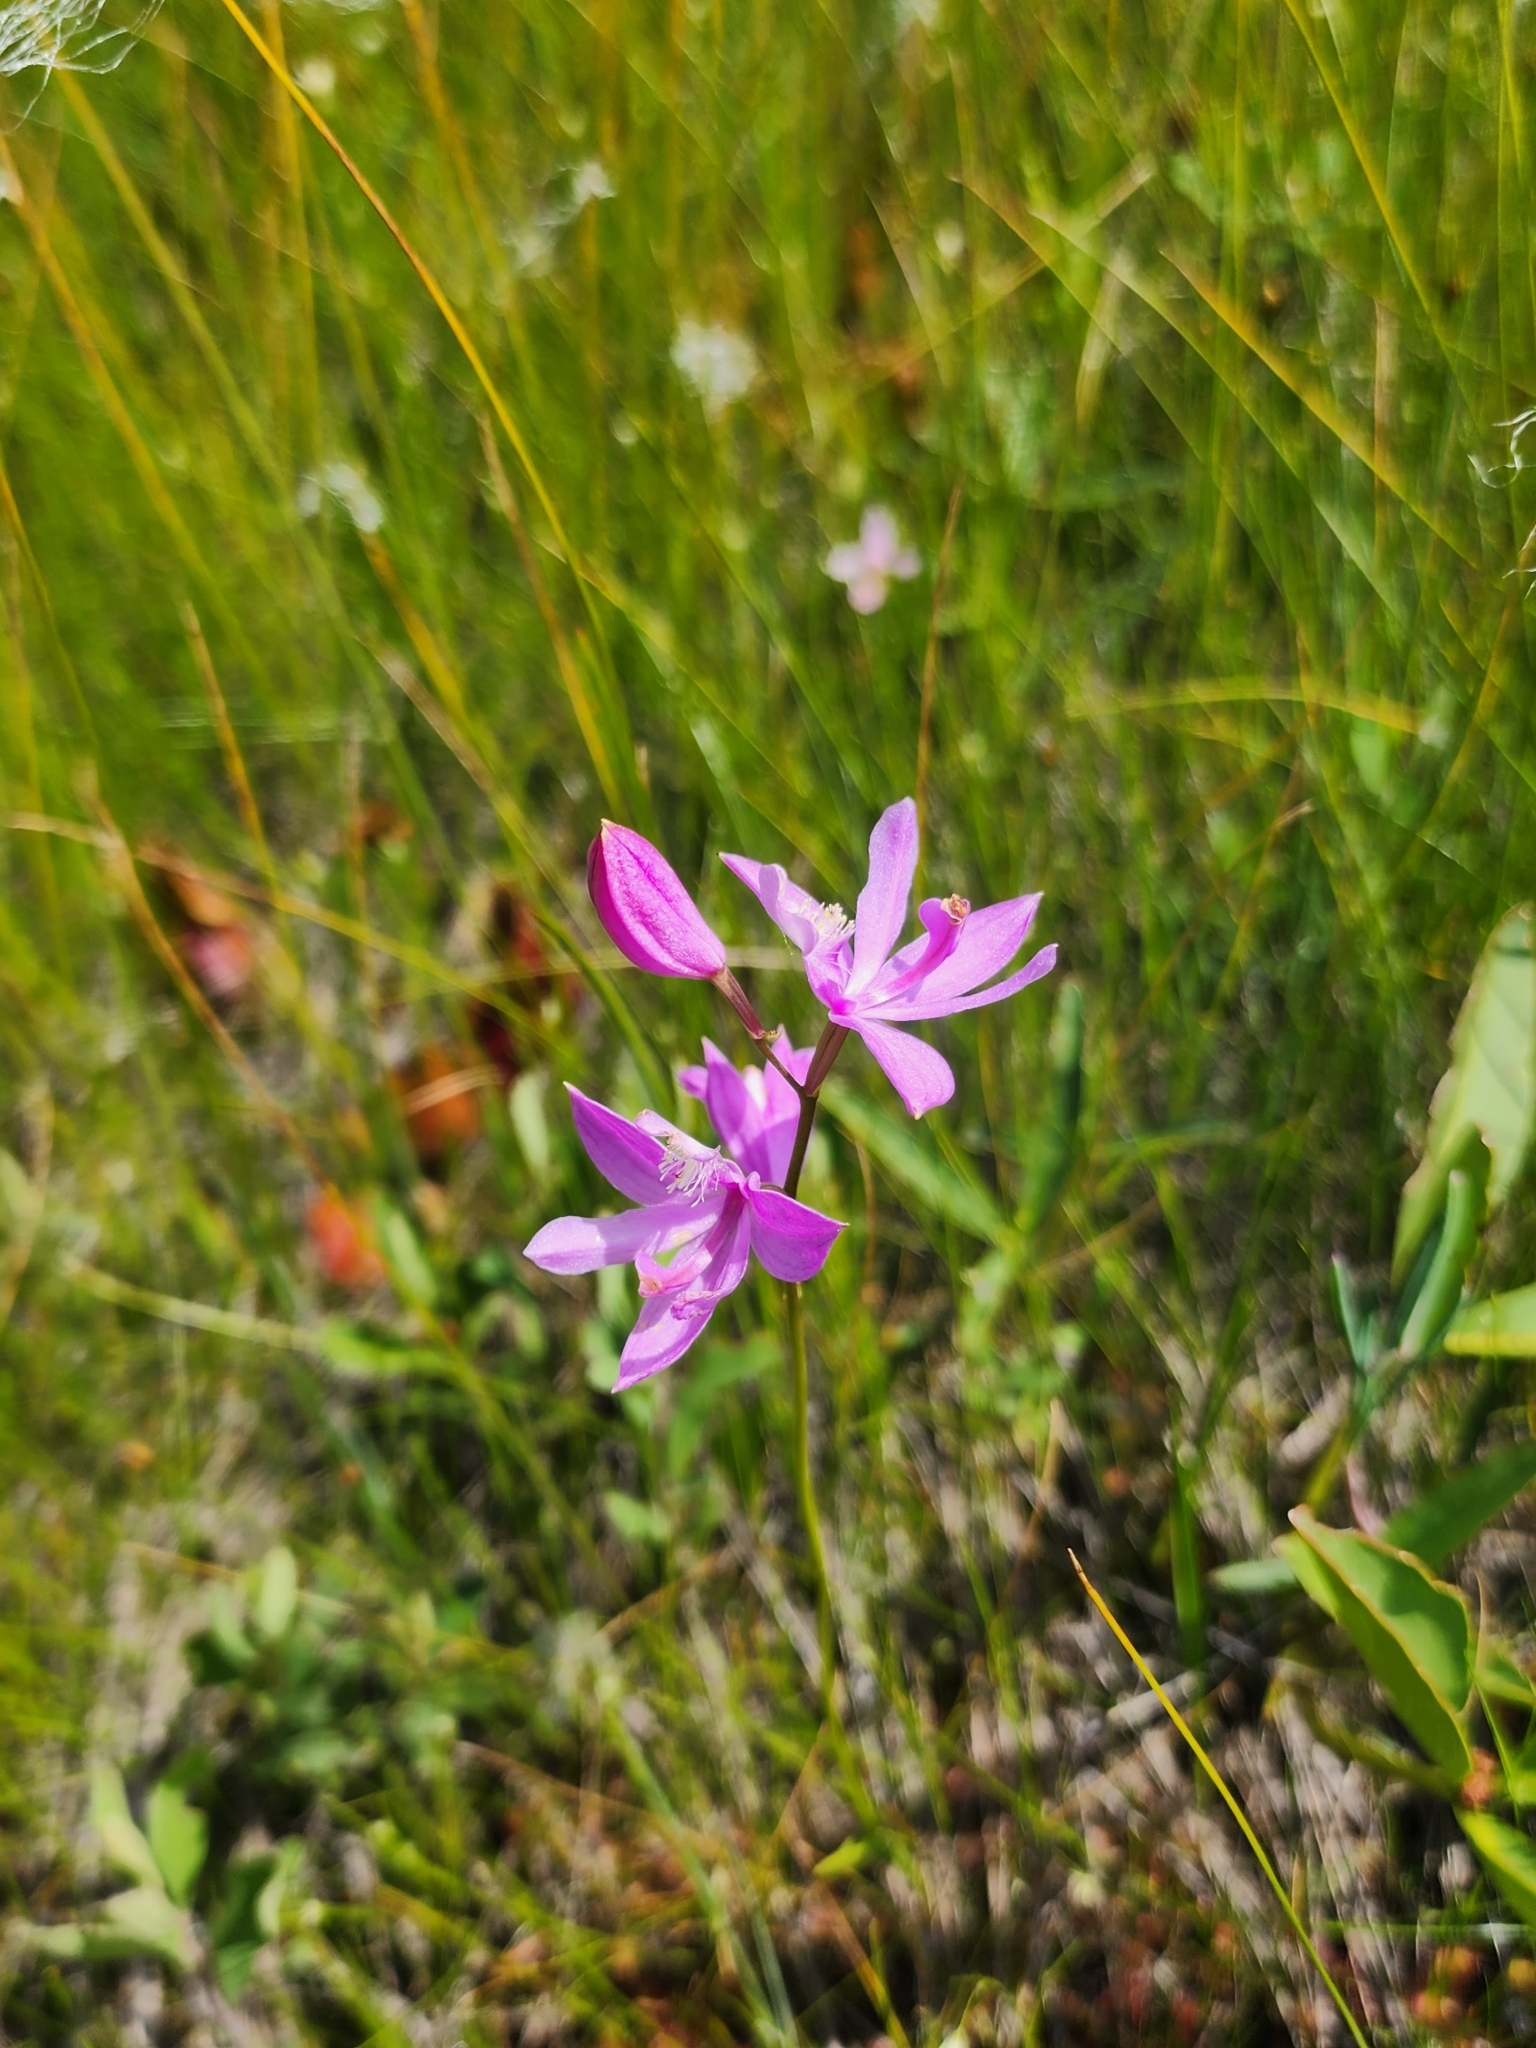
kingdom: Plantae
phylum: Tracheophyta
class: Liliopsida
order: Asparagales
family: Orchidaceae
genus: Calopogon
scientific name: Calopogon tuberosus
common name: Grass-pink
